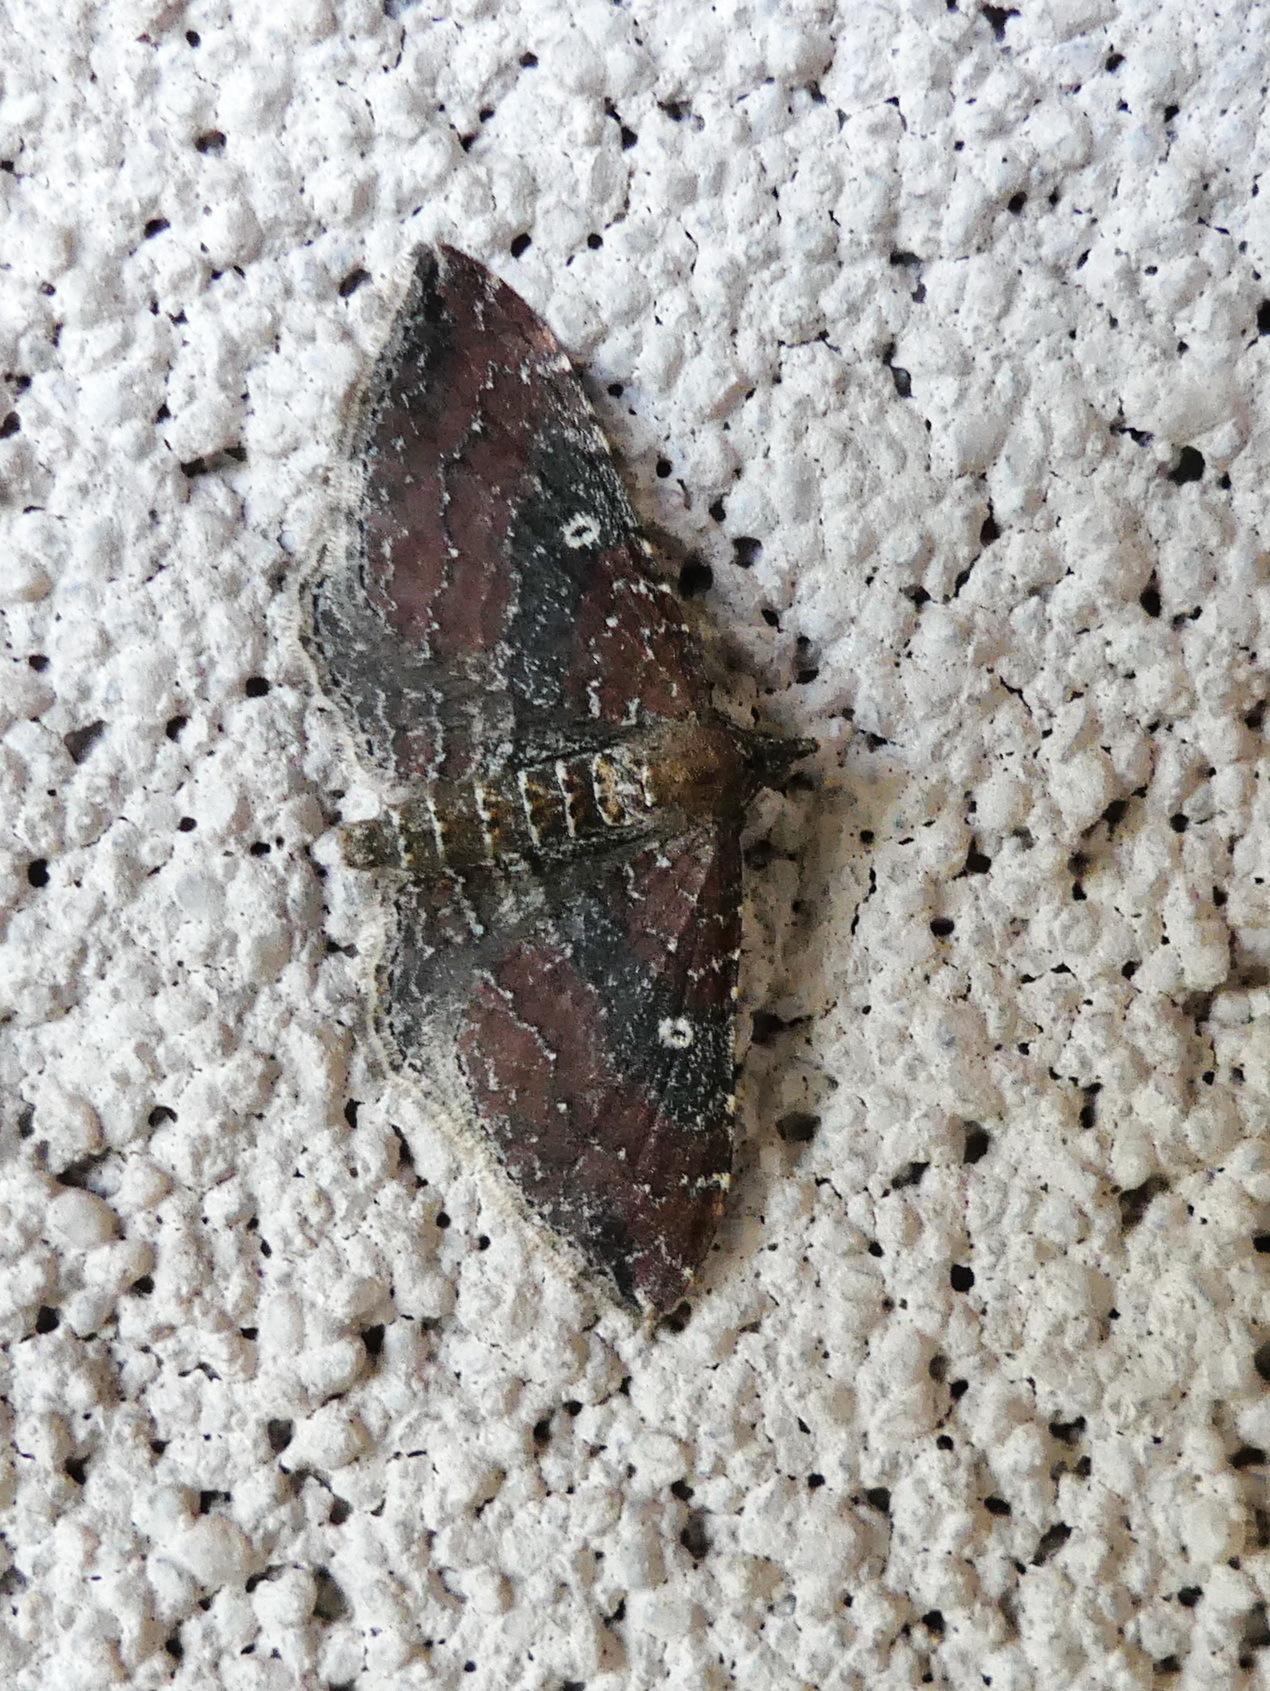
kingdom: Animalia
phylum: Arthropoda
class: Insecta
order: Lepidoptera
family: Geometridae
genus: Orthonama
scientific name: Orthonama obstipata
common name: The gem
